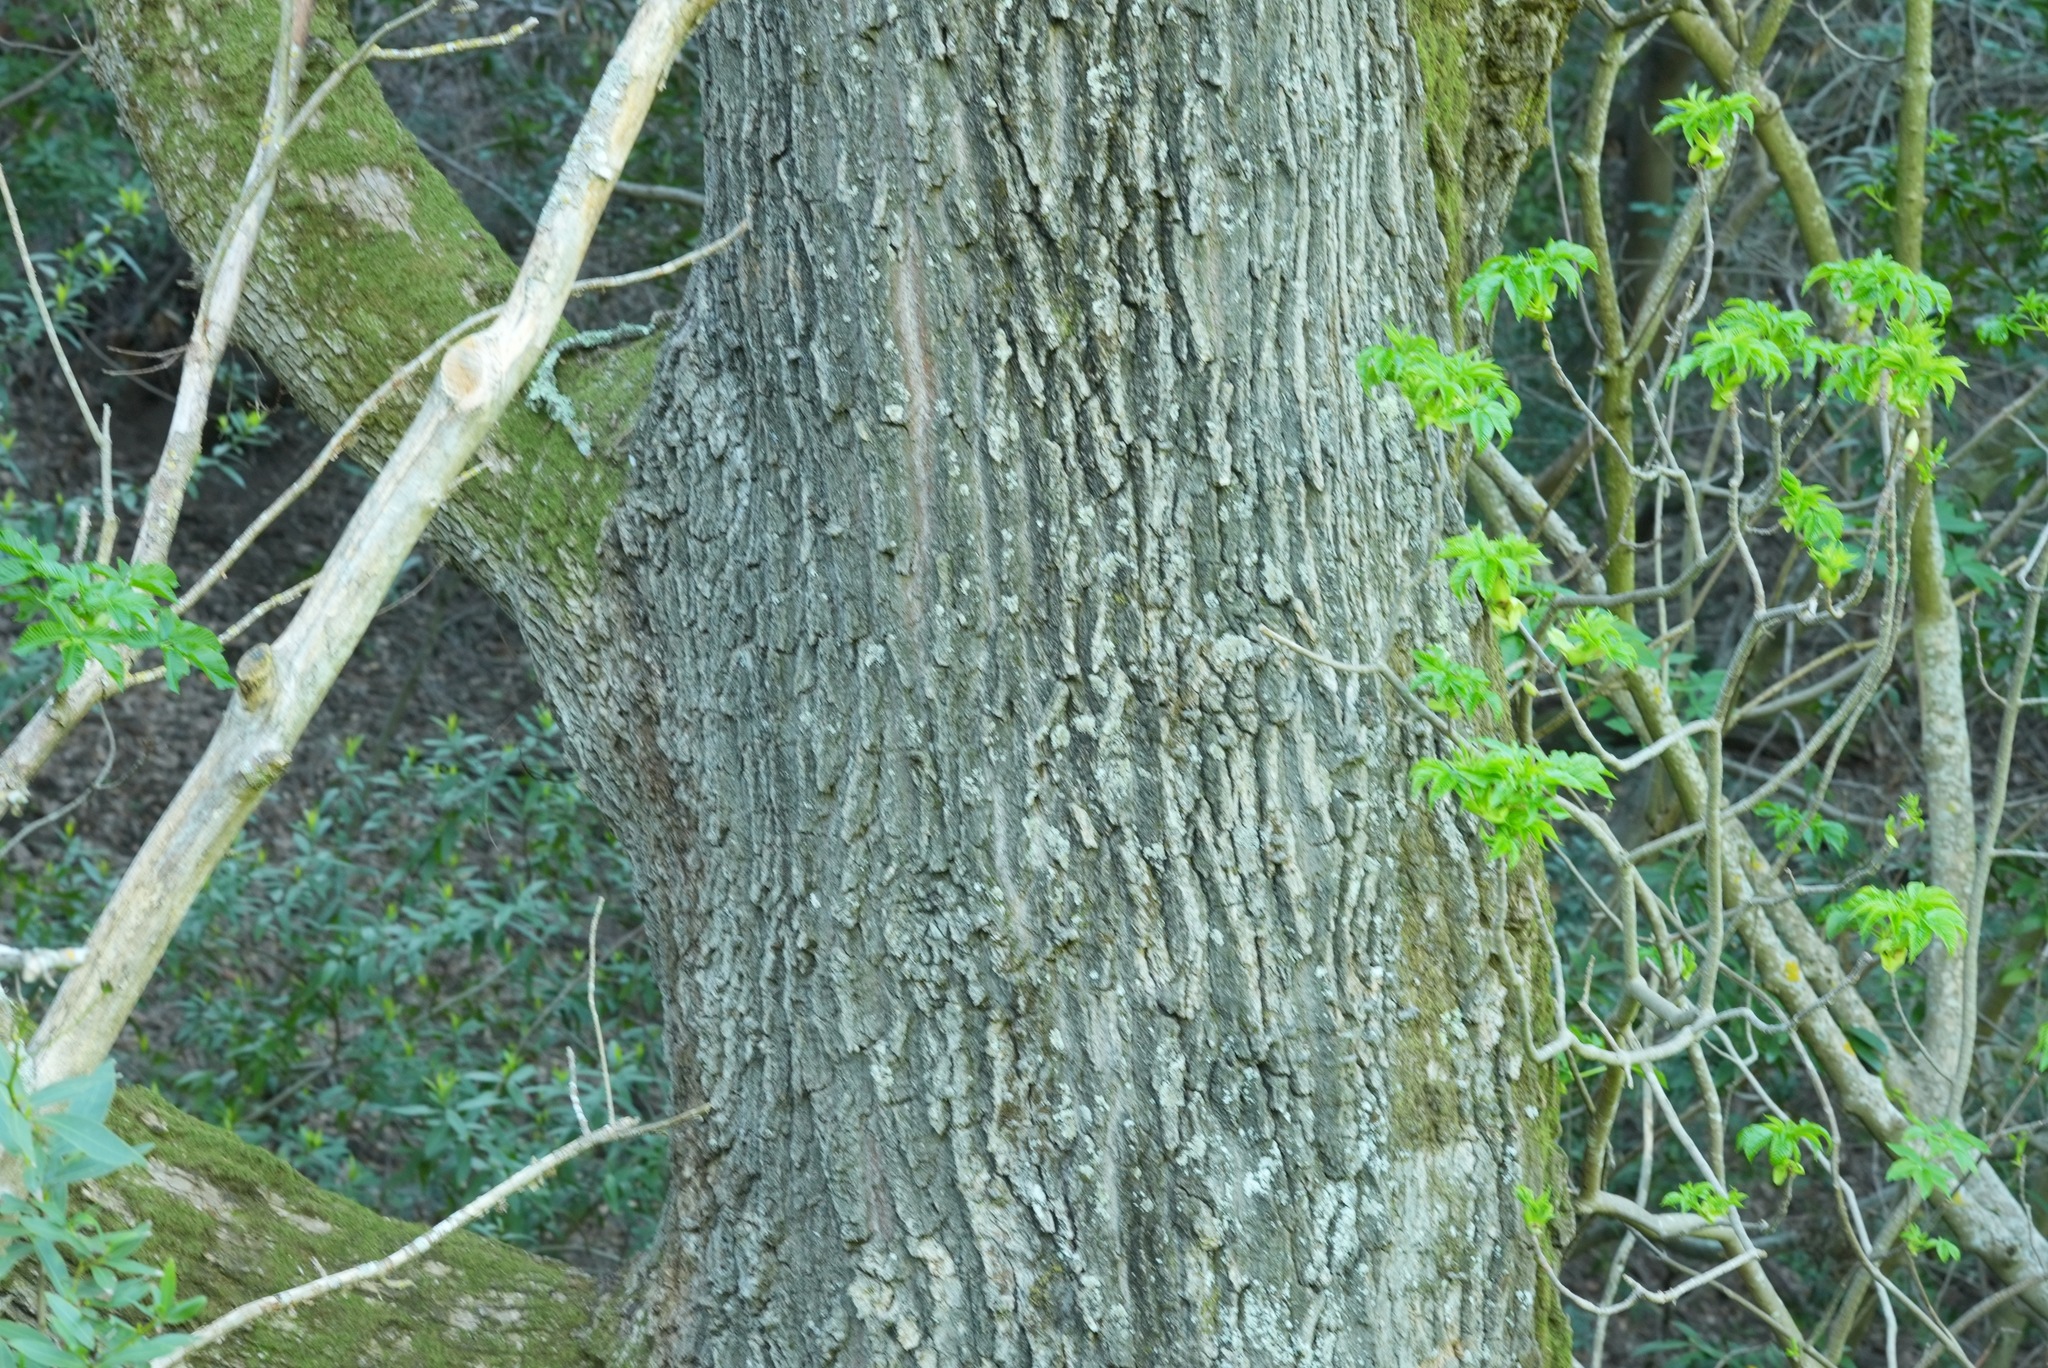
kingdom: Plantae
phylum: Tracheophyta
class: Magnoliopsida
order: Fagales
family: Fagaceae
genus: Quercus
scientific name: Quercus lobata
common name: Valley oak
